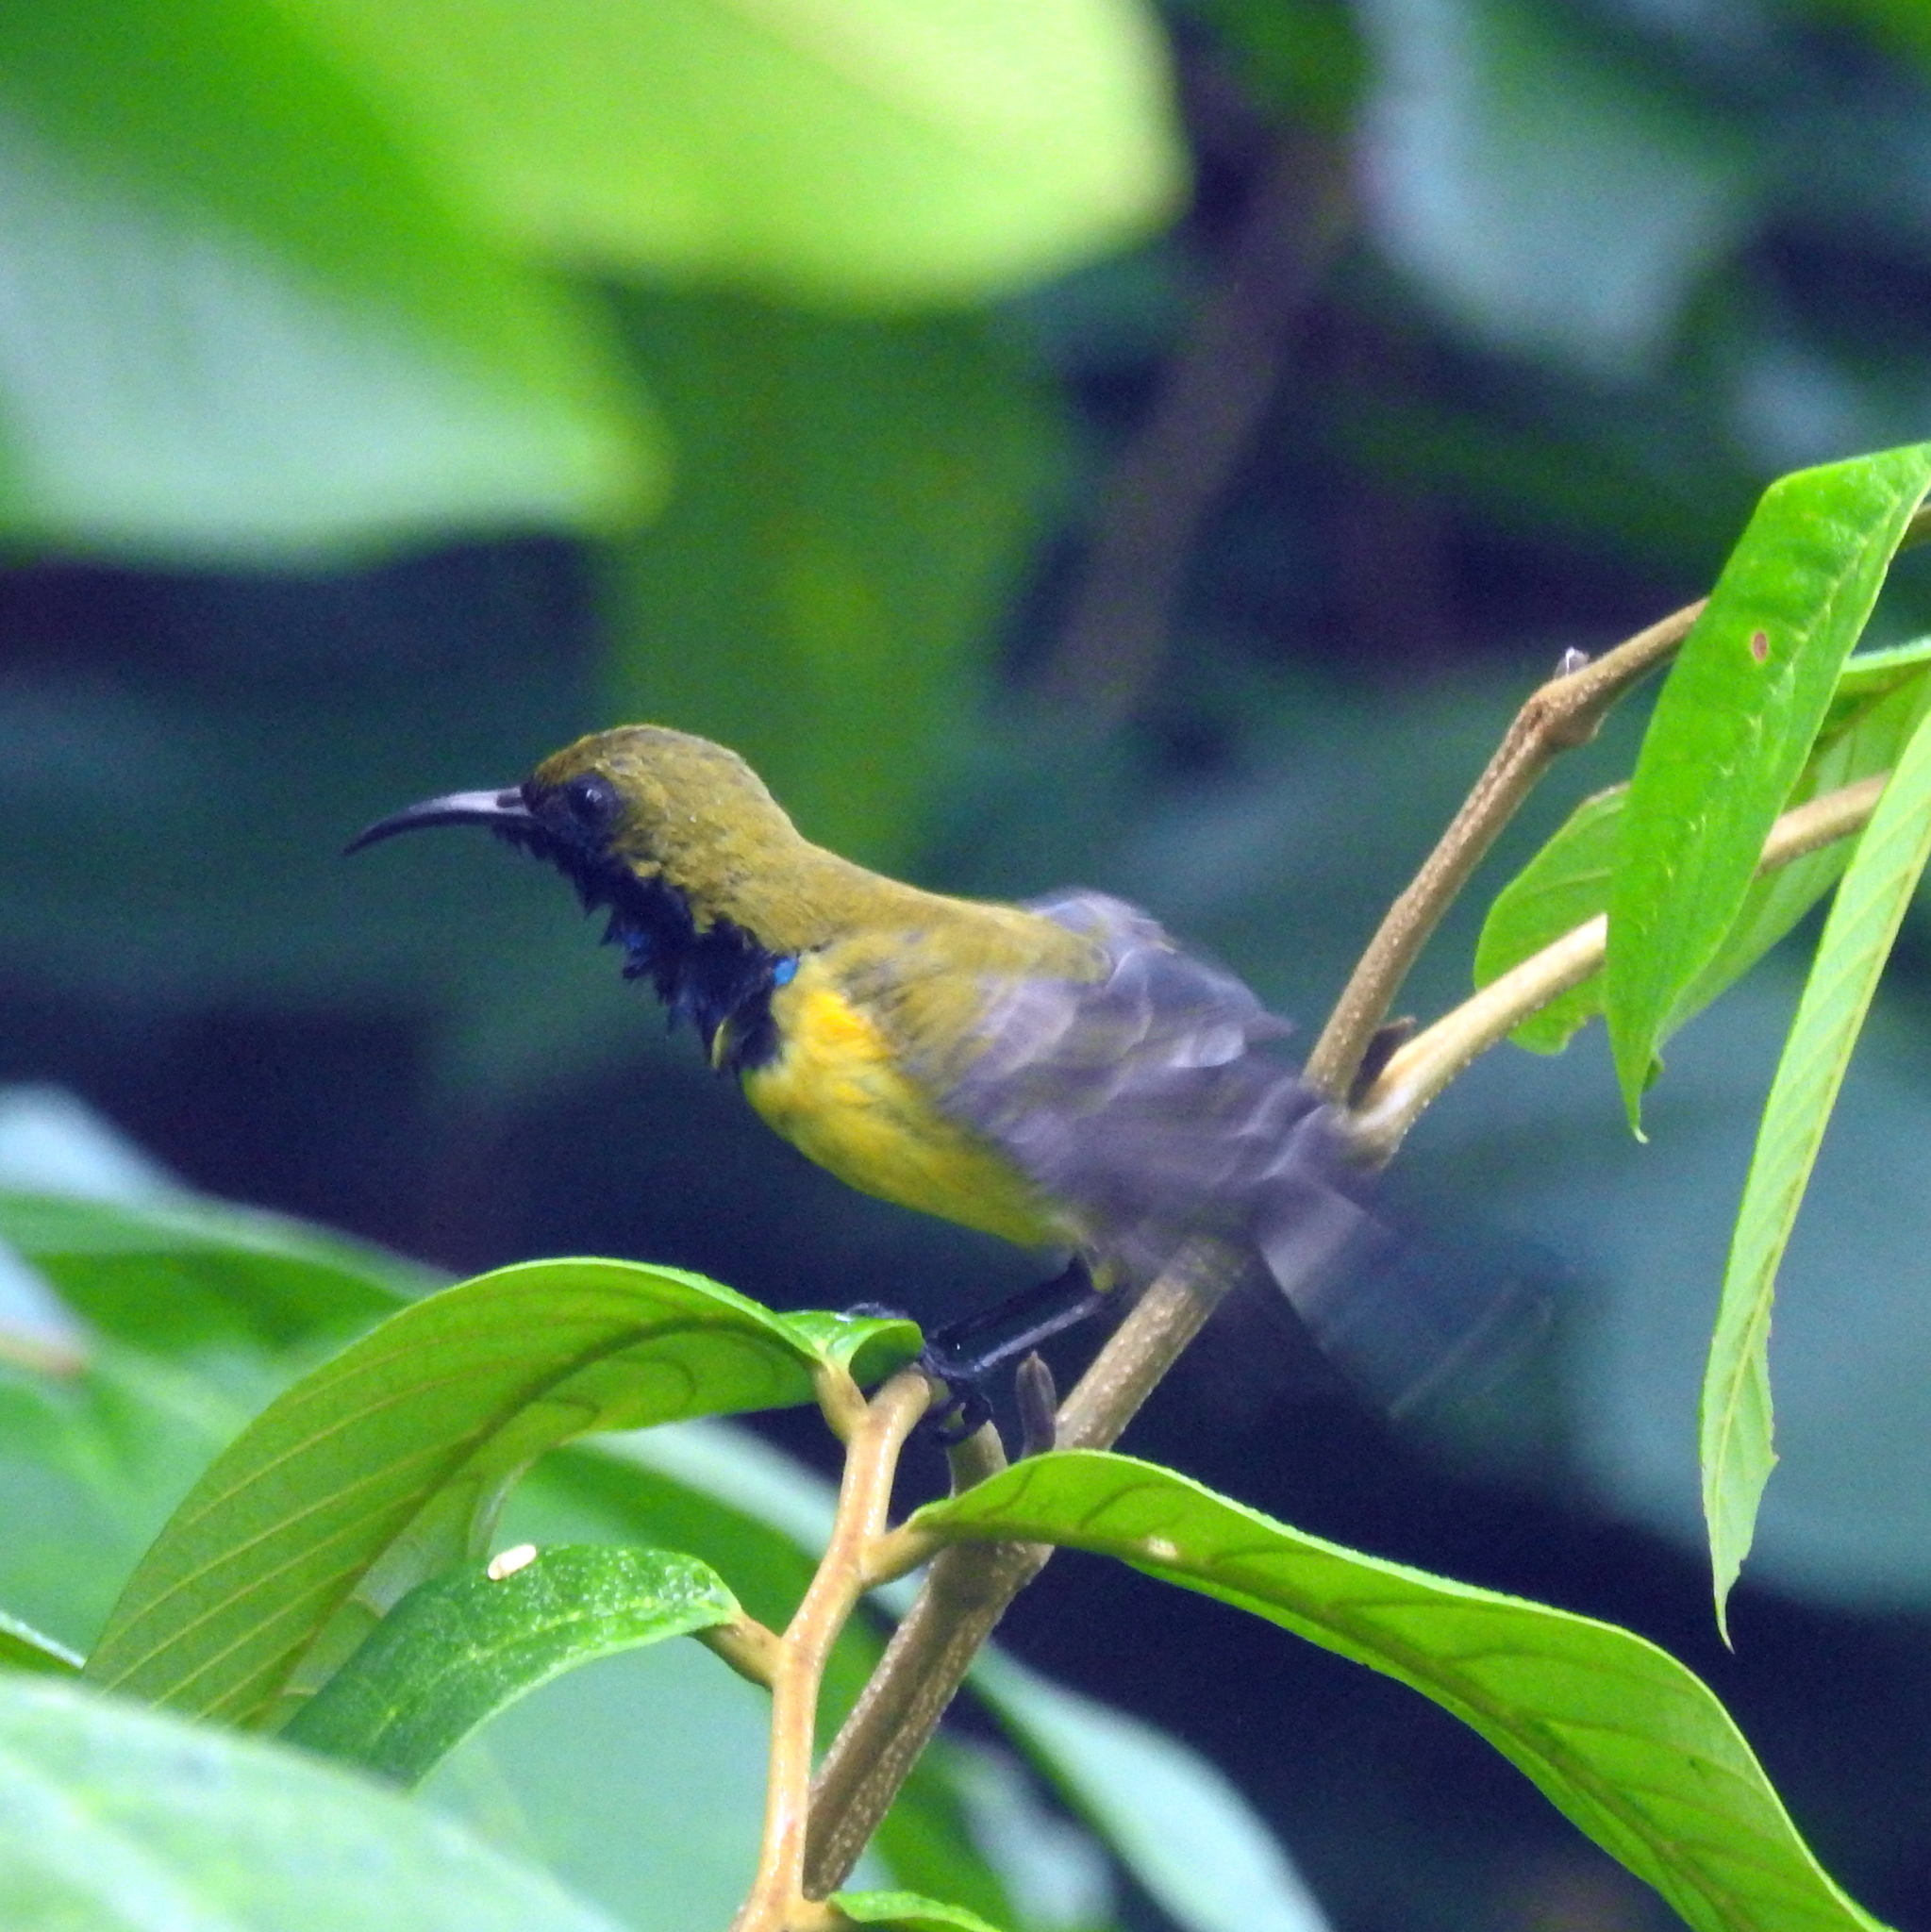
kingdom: Animalia
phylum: Chordata
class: Aves
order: Passeriformes
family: Nectariniidae
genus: Cinnyris
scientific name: Cinnyris
